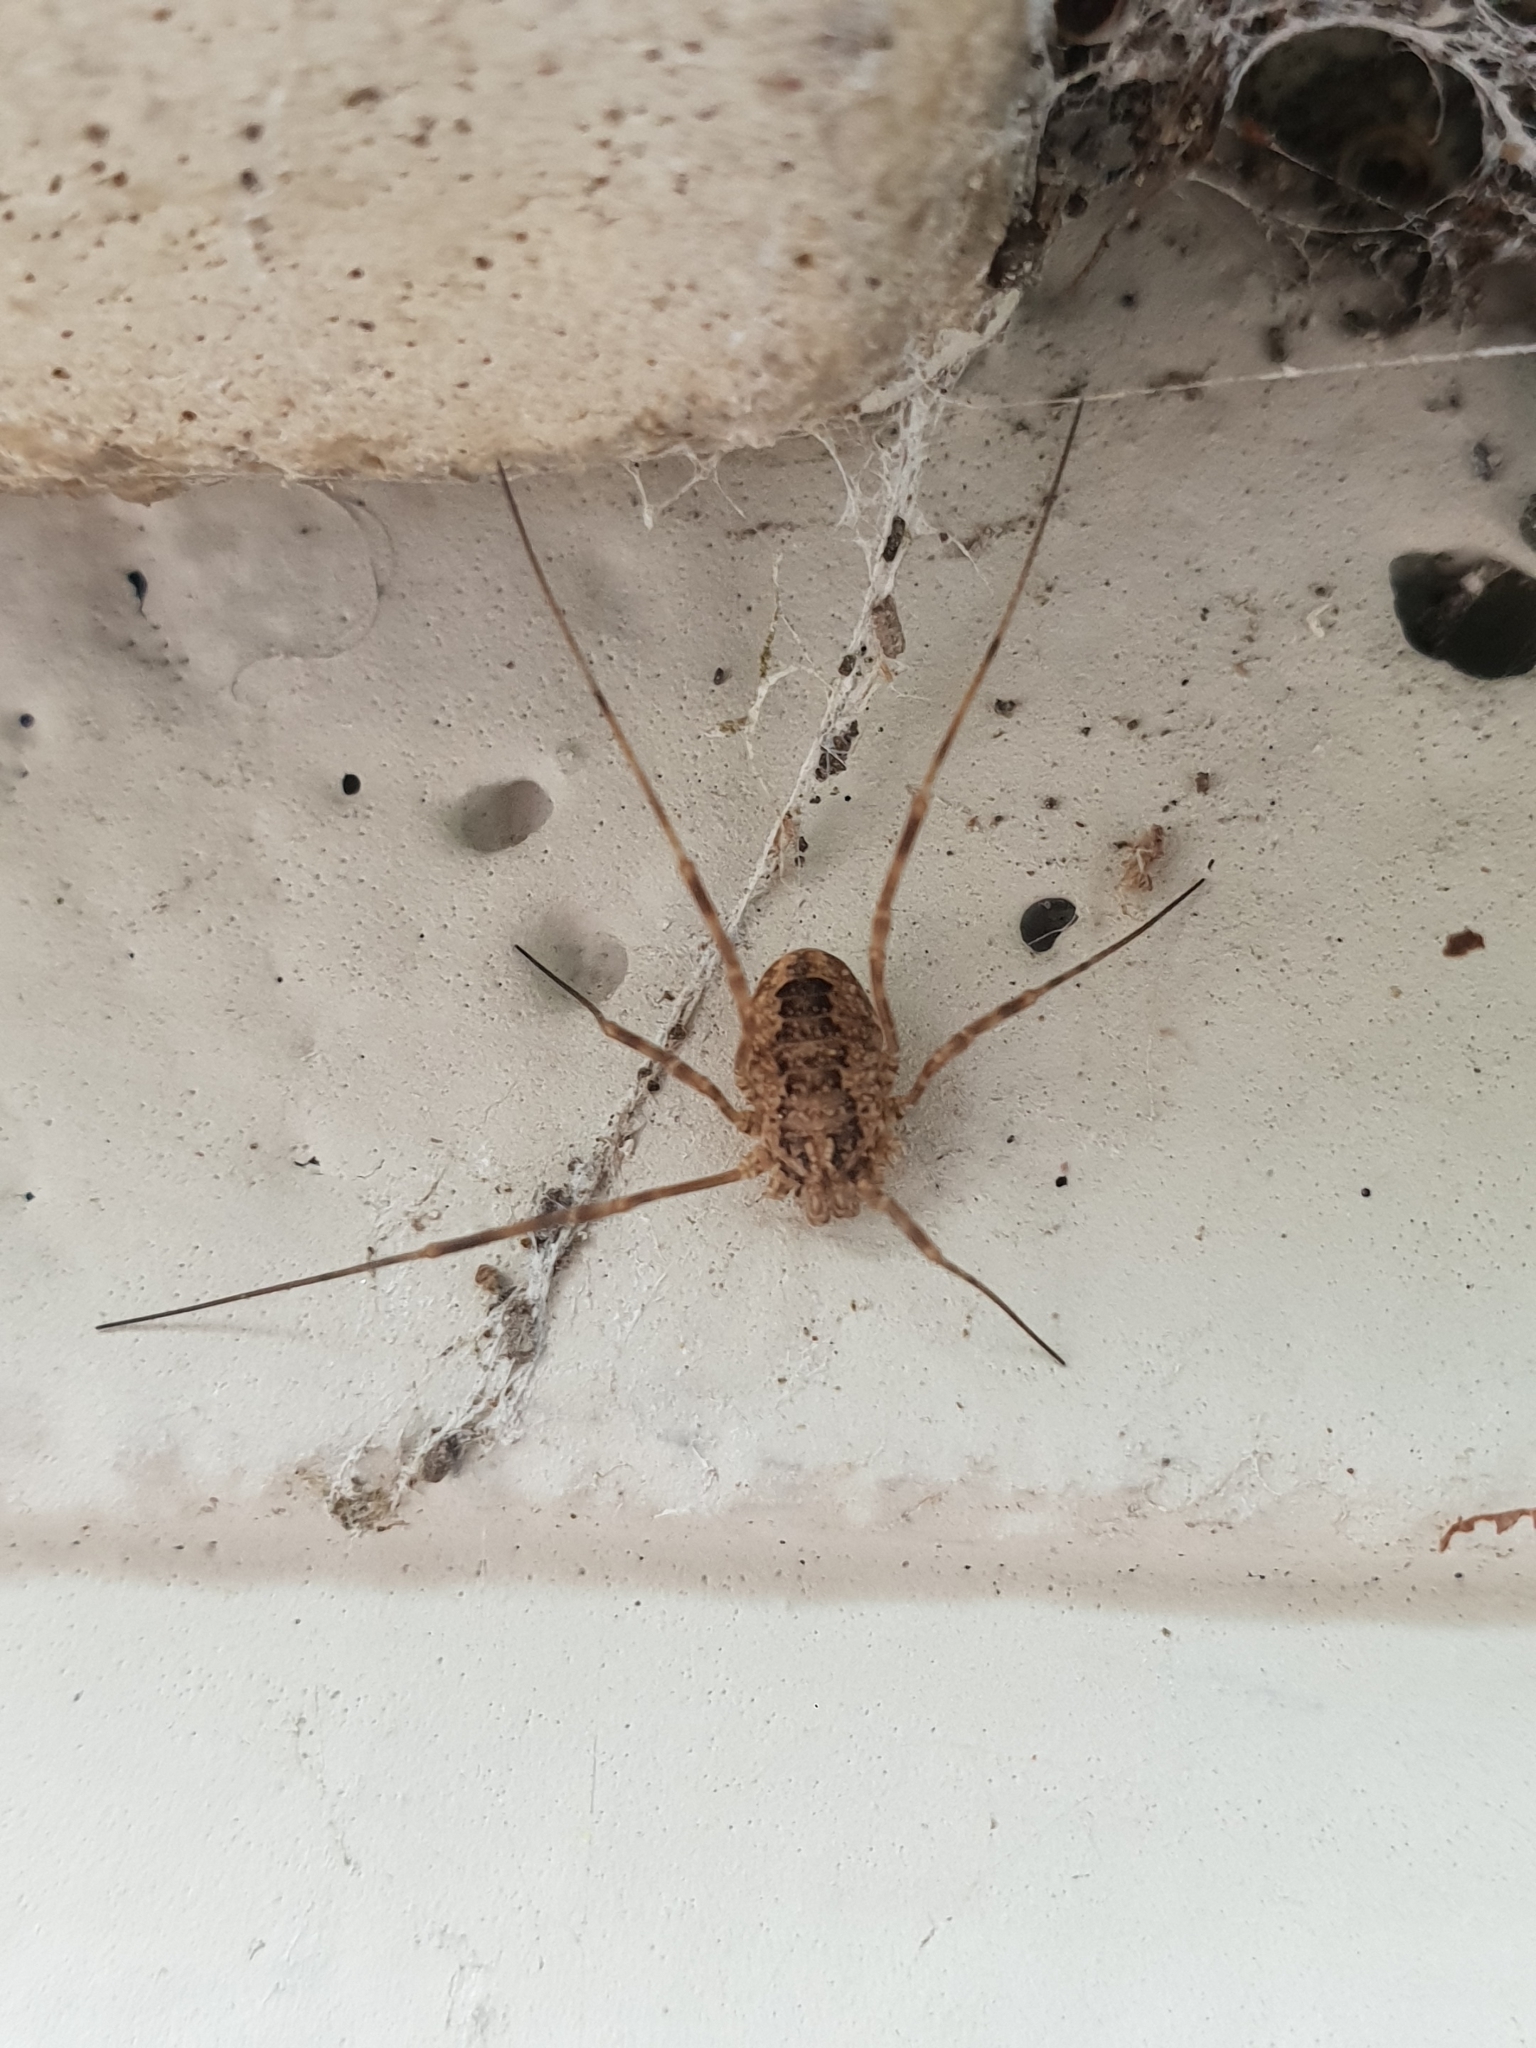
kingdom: Animalia
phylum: Arthropoda
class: Arachnida
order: Opiliones
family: Phalangiidae
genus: Rilaena
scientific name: Rilaena triangularis
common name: Spring harvestman
